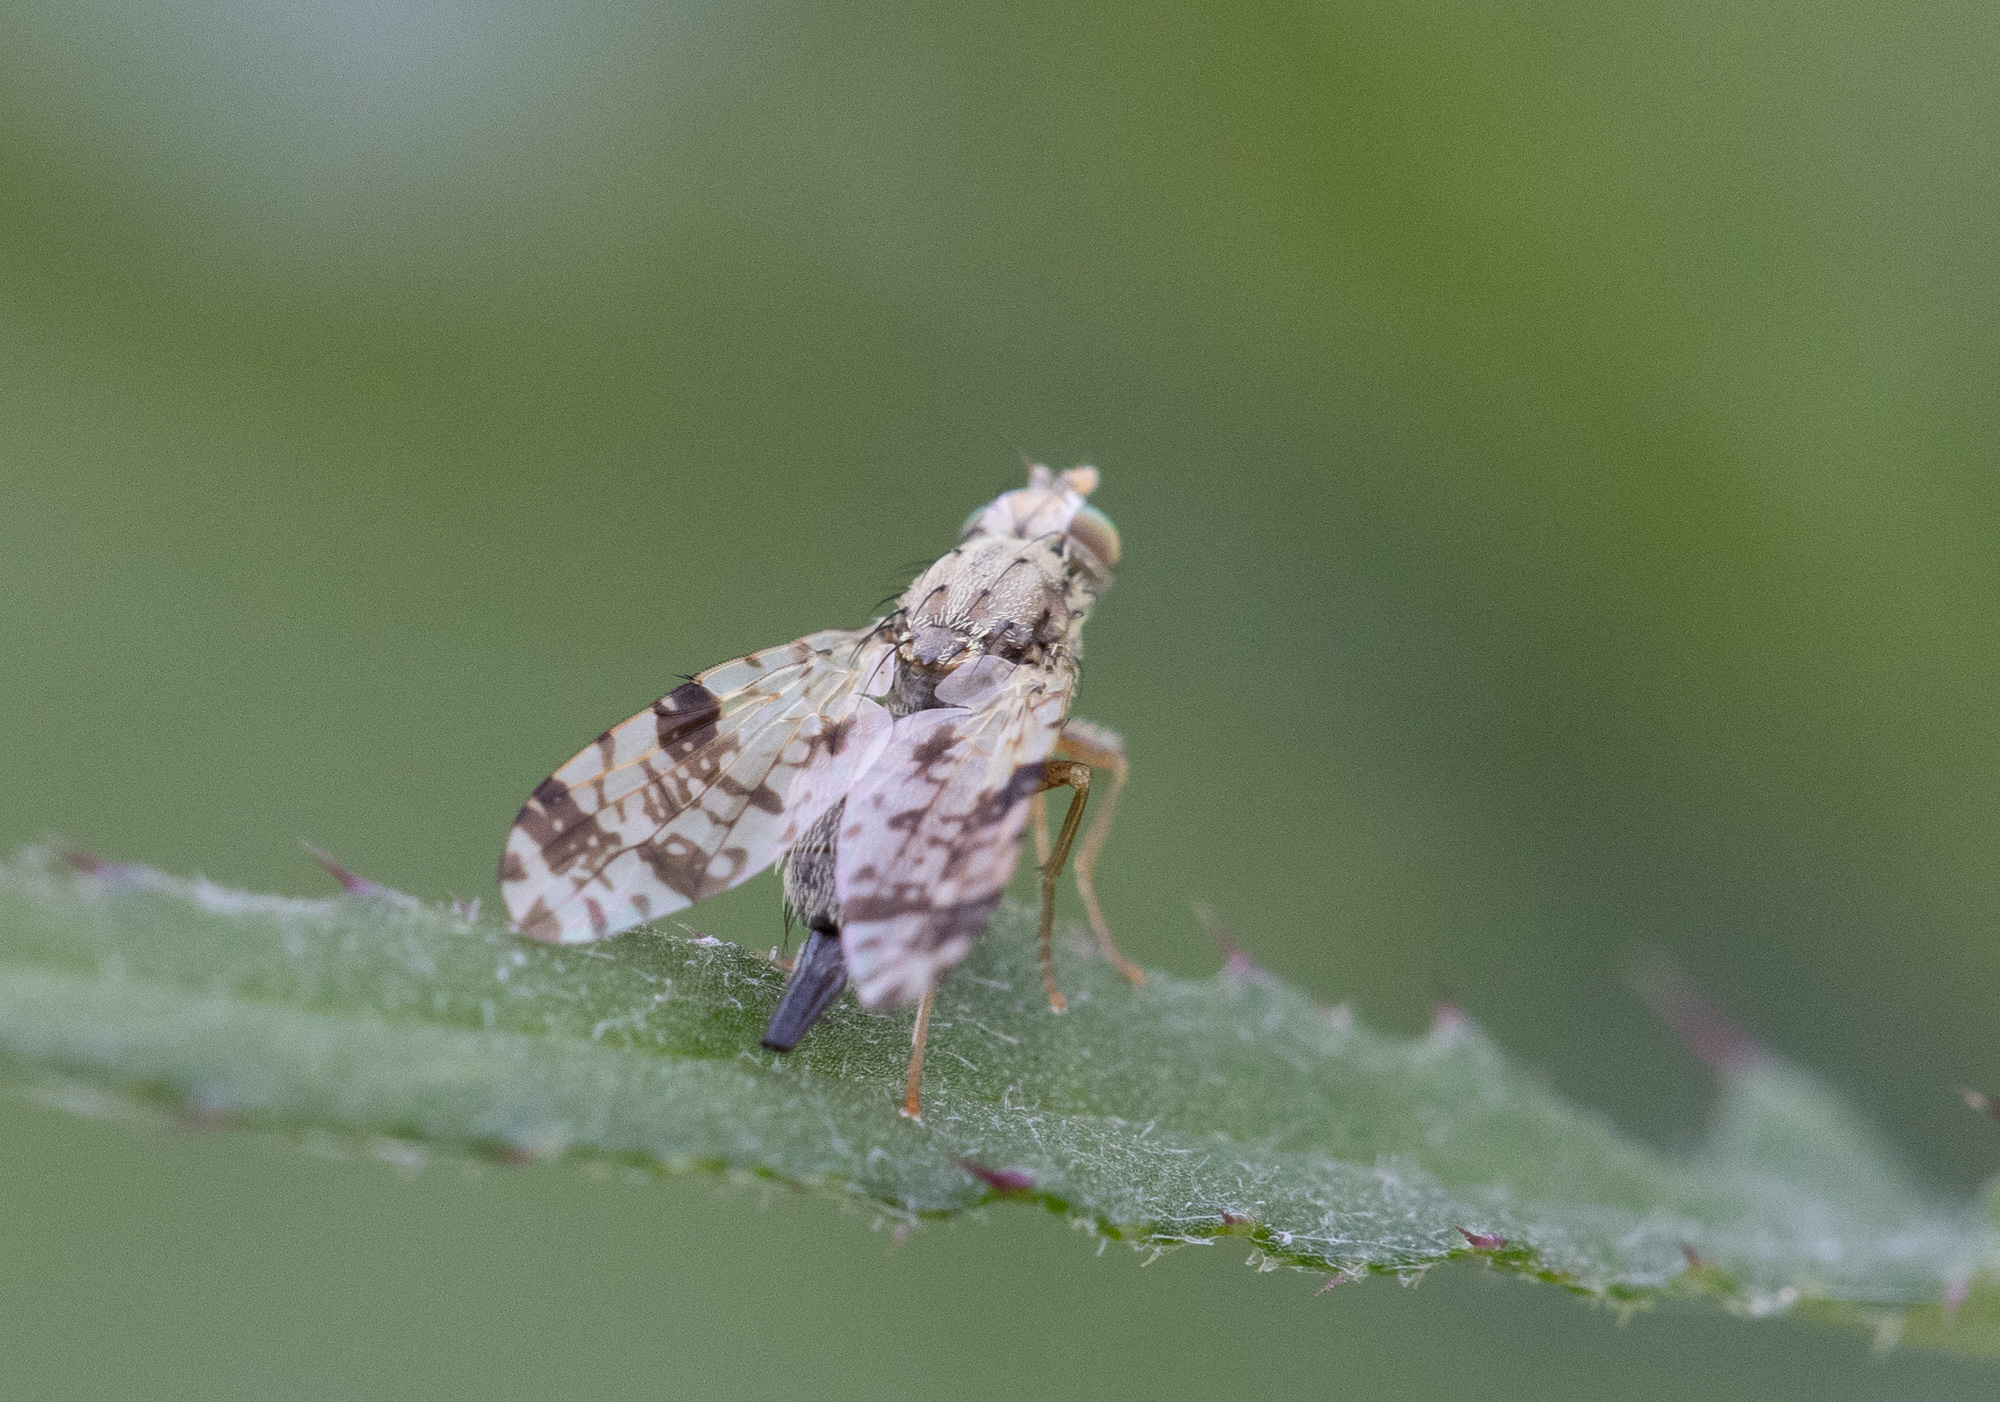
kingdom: Animalia
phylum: Arthropoda
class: Insecta
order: Diptera
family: Tephritidae
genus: Tephritis
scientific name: Tephritis hyoscyami
